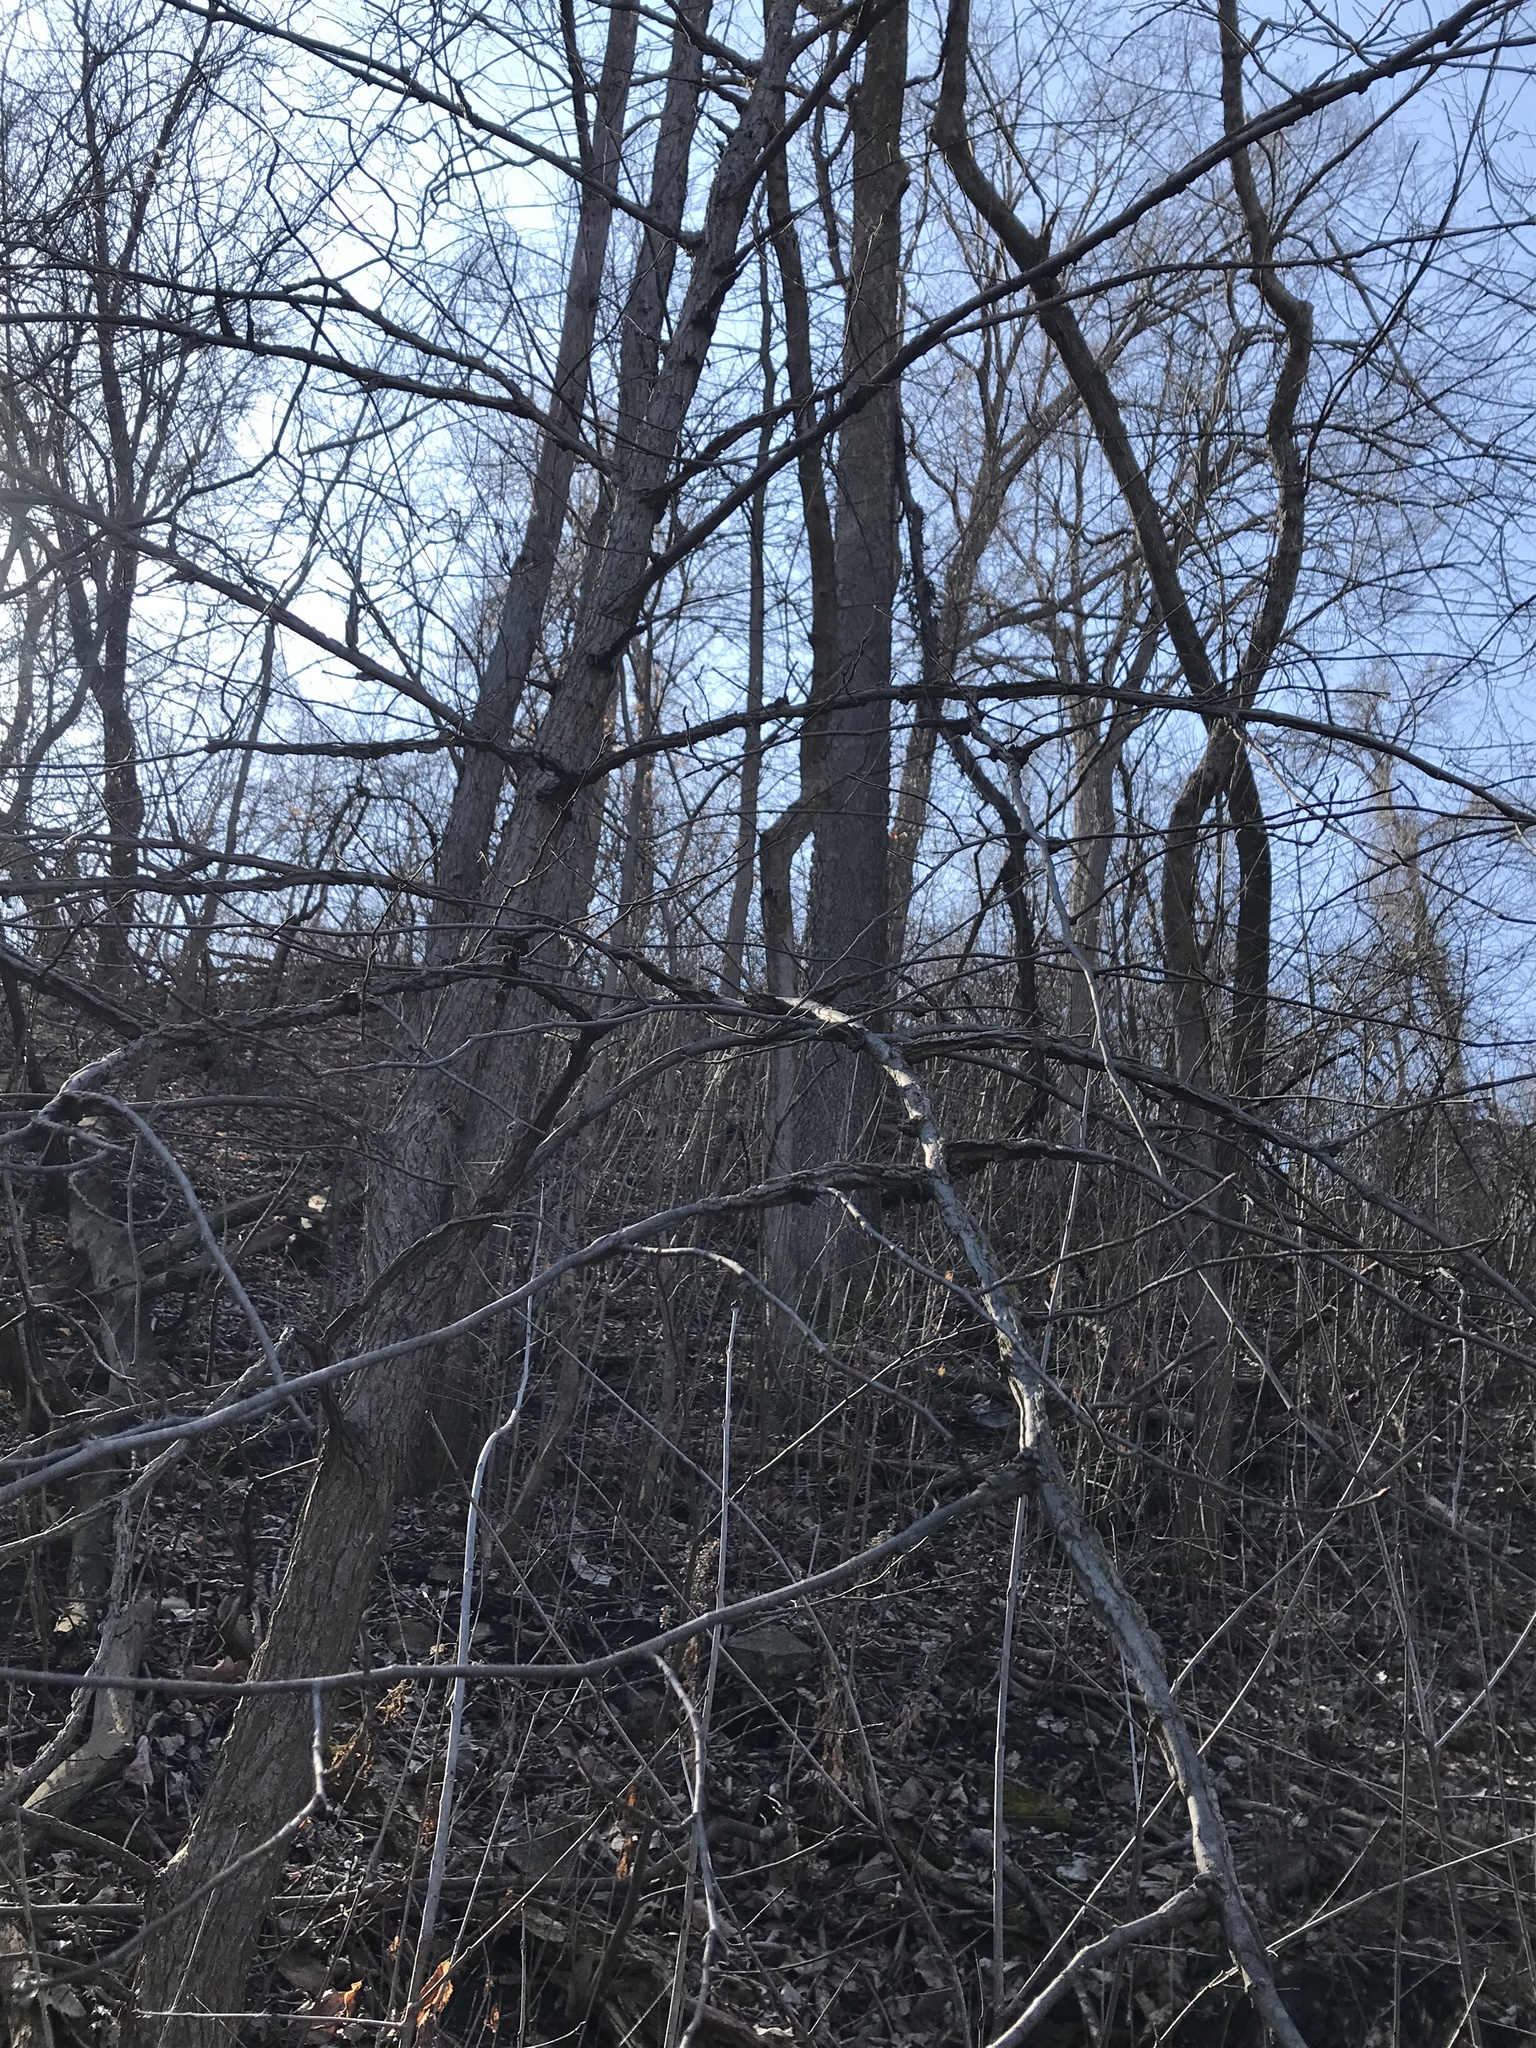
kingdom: Plantae
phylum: Tracheophyta
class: Magnoliopsida
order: Rosales
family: Ulmaceae
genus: Ulmus
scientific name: Ulmus thomasii
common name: Rock elm
